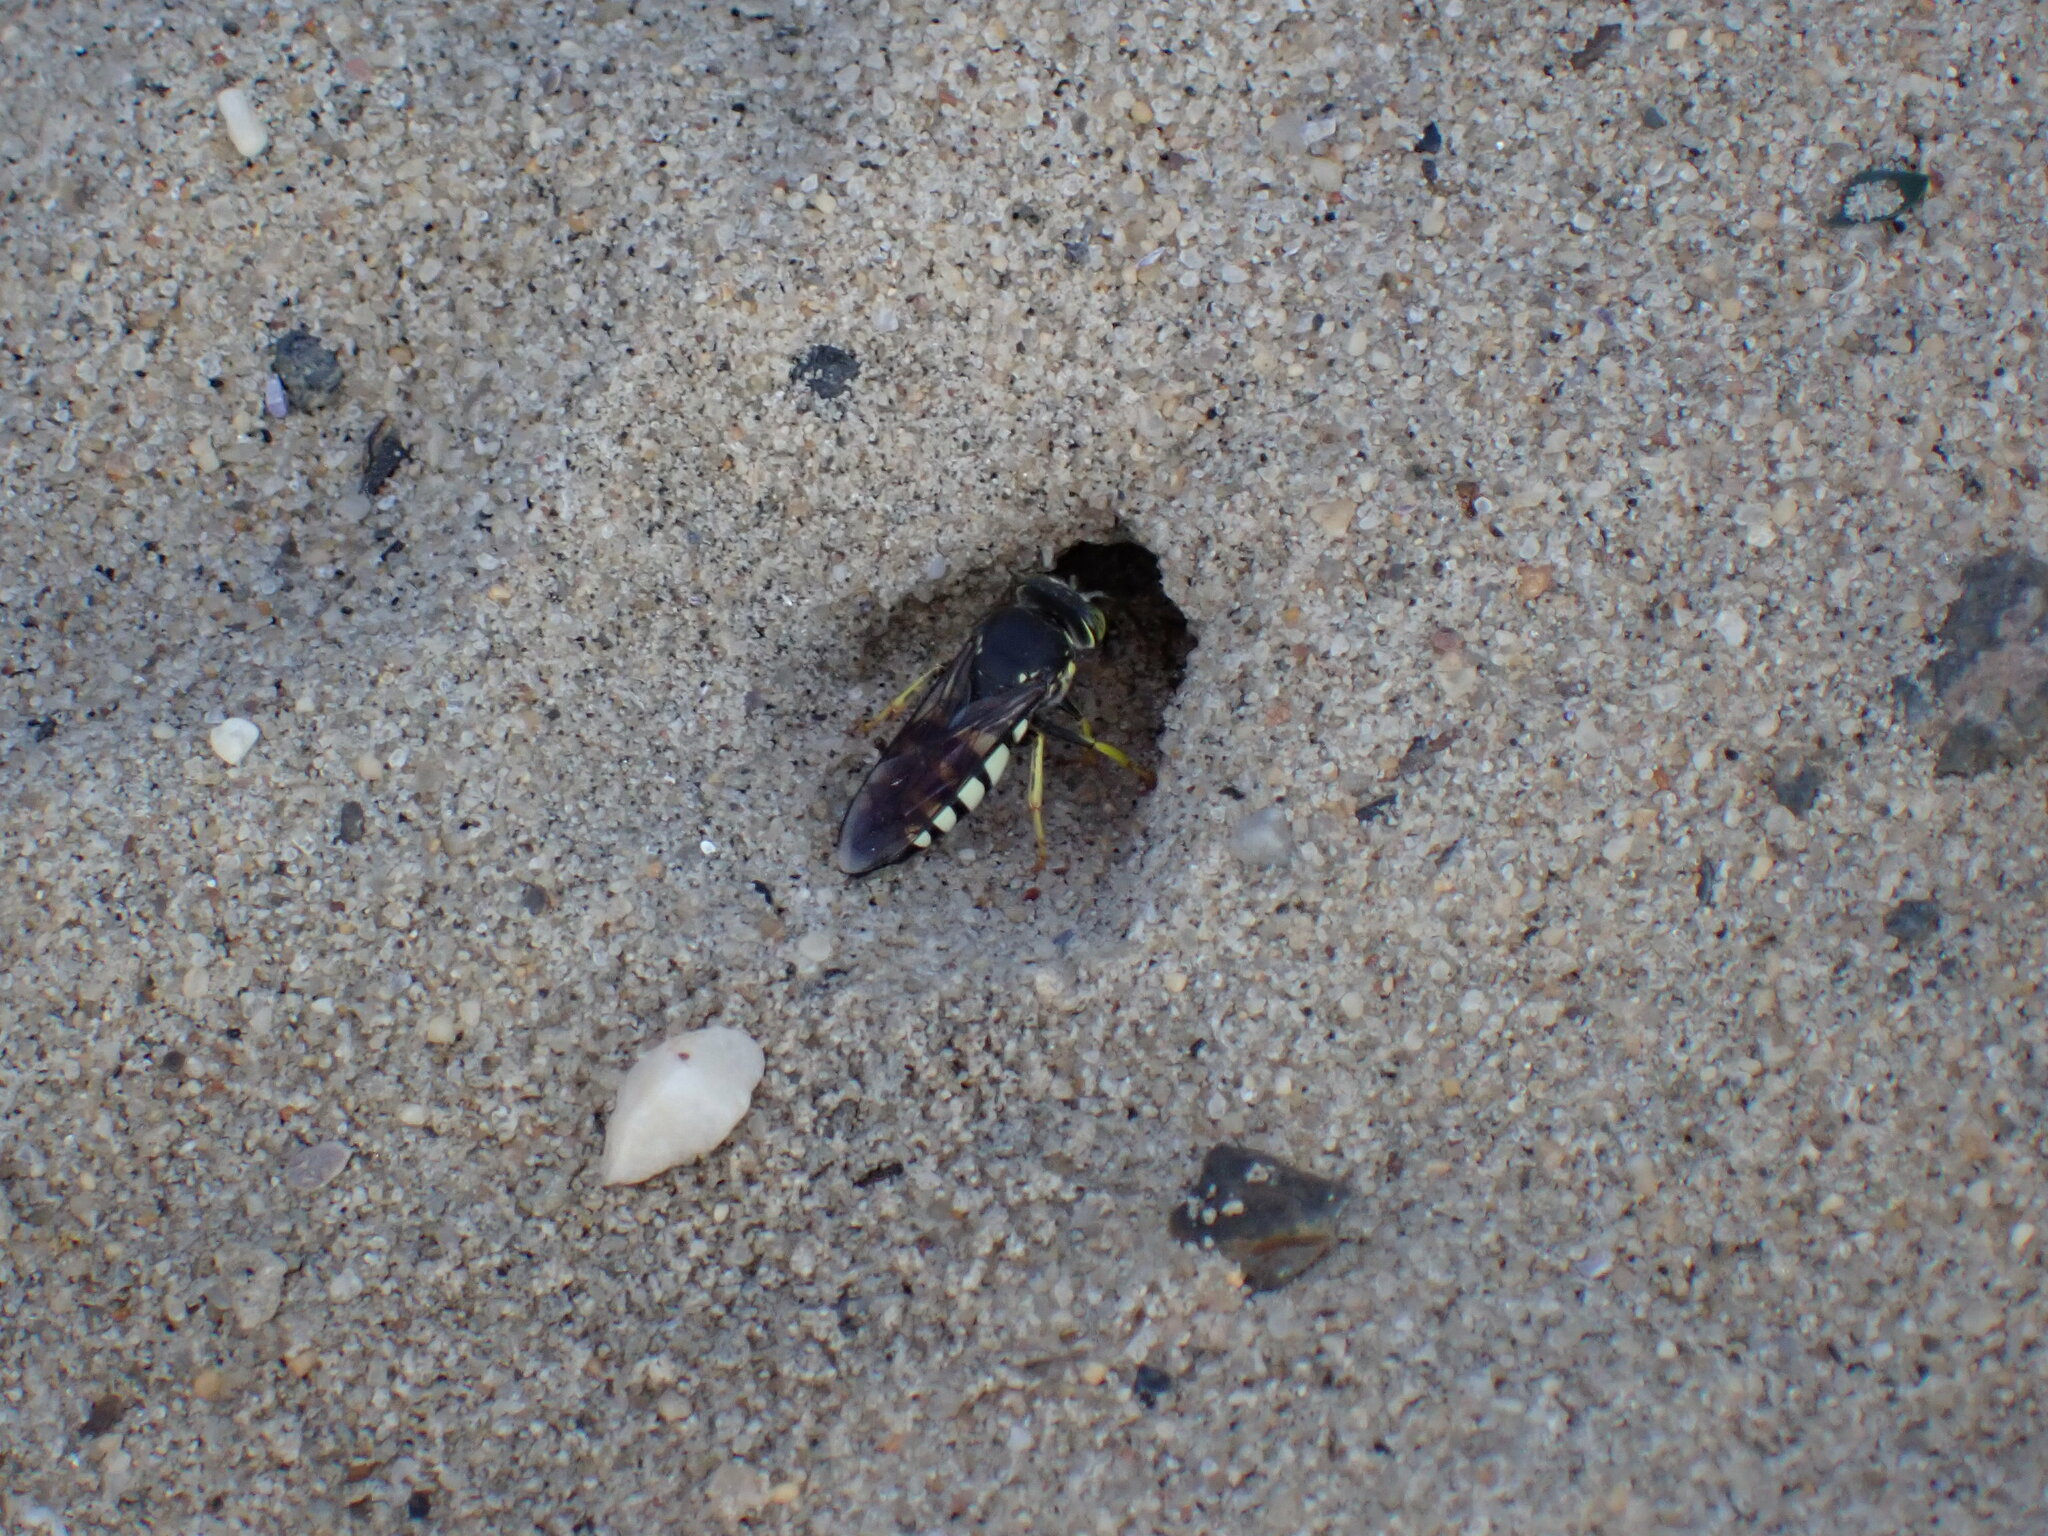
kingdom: Animalia
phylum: Arthropoda
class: Insecta
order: Hymenoptera
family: Crabronidae
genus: Bicyrtes
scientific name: Bicyrtes quadrifasciatus
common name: Four-banded stink bug hunter wasp
